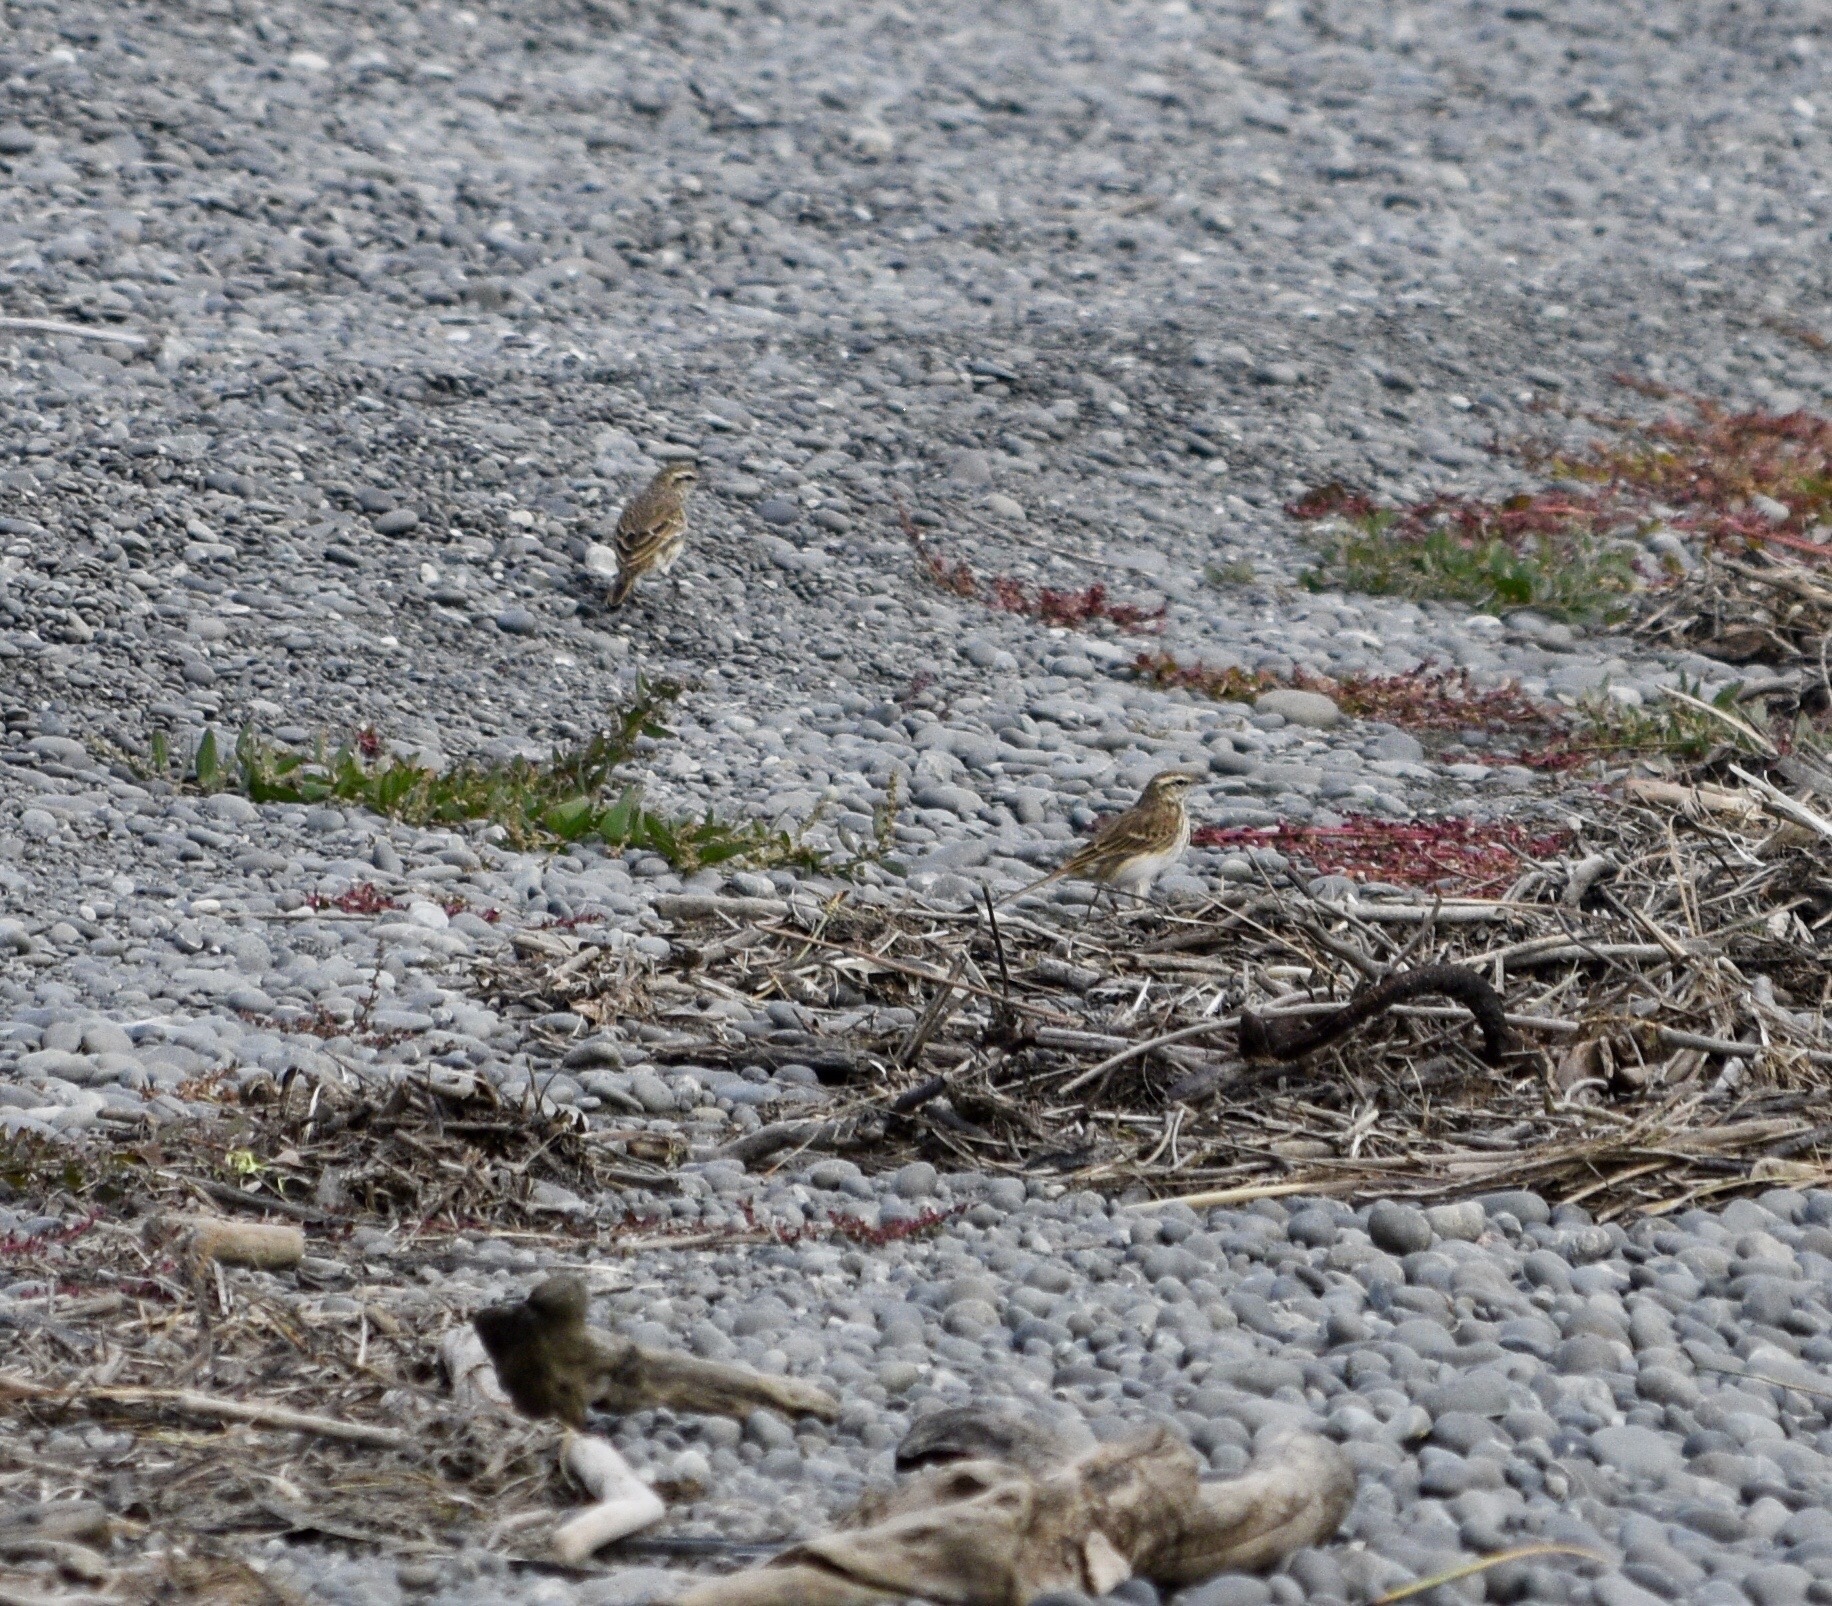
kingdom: Animalia
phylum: Chordata
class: Aves
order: Passeriformes
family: Motacillidae
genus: Anthus
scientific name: Anthus novaeseelandiae
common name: New zealand pipit
